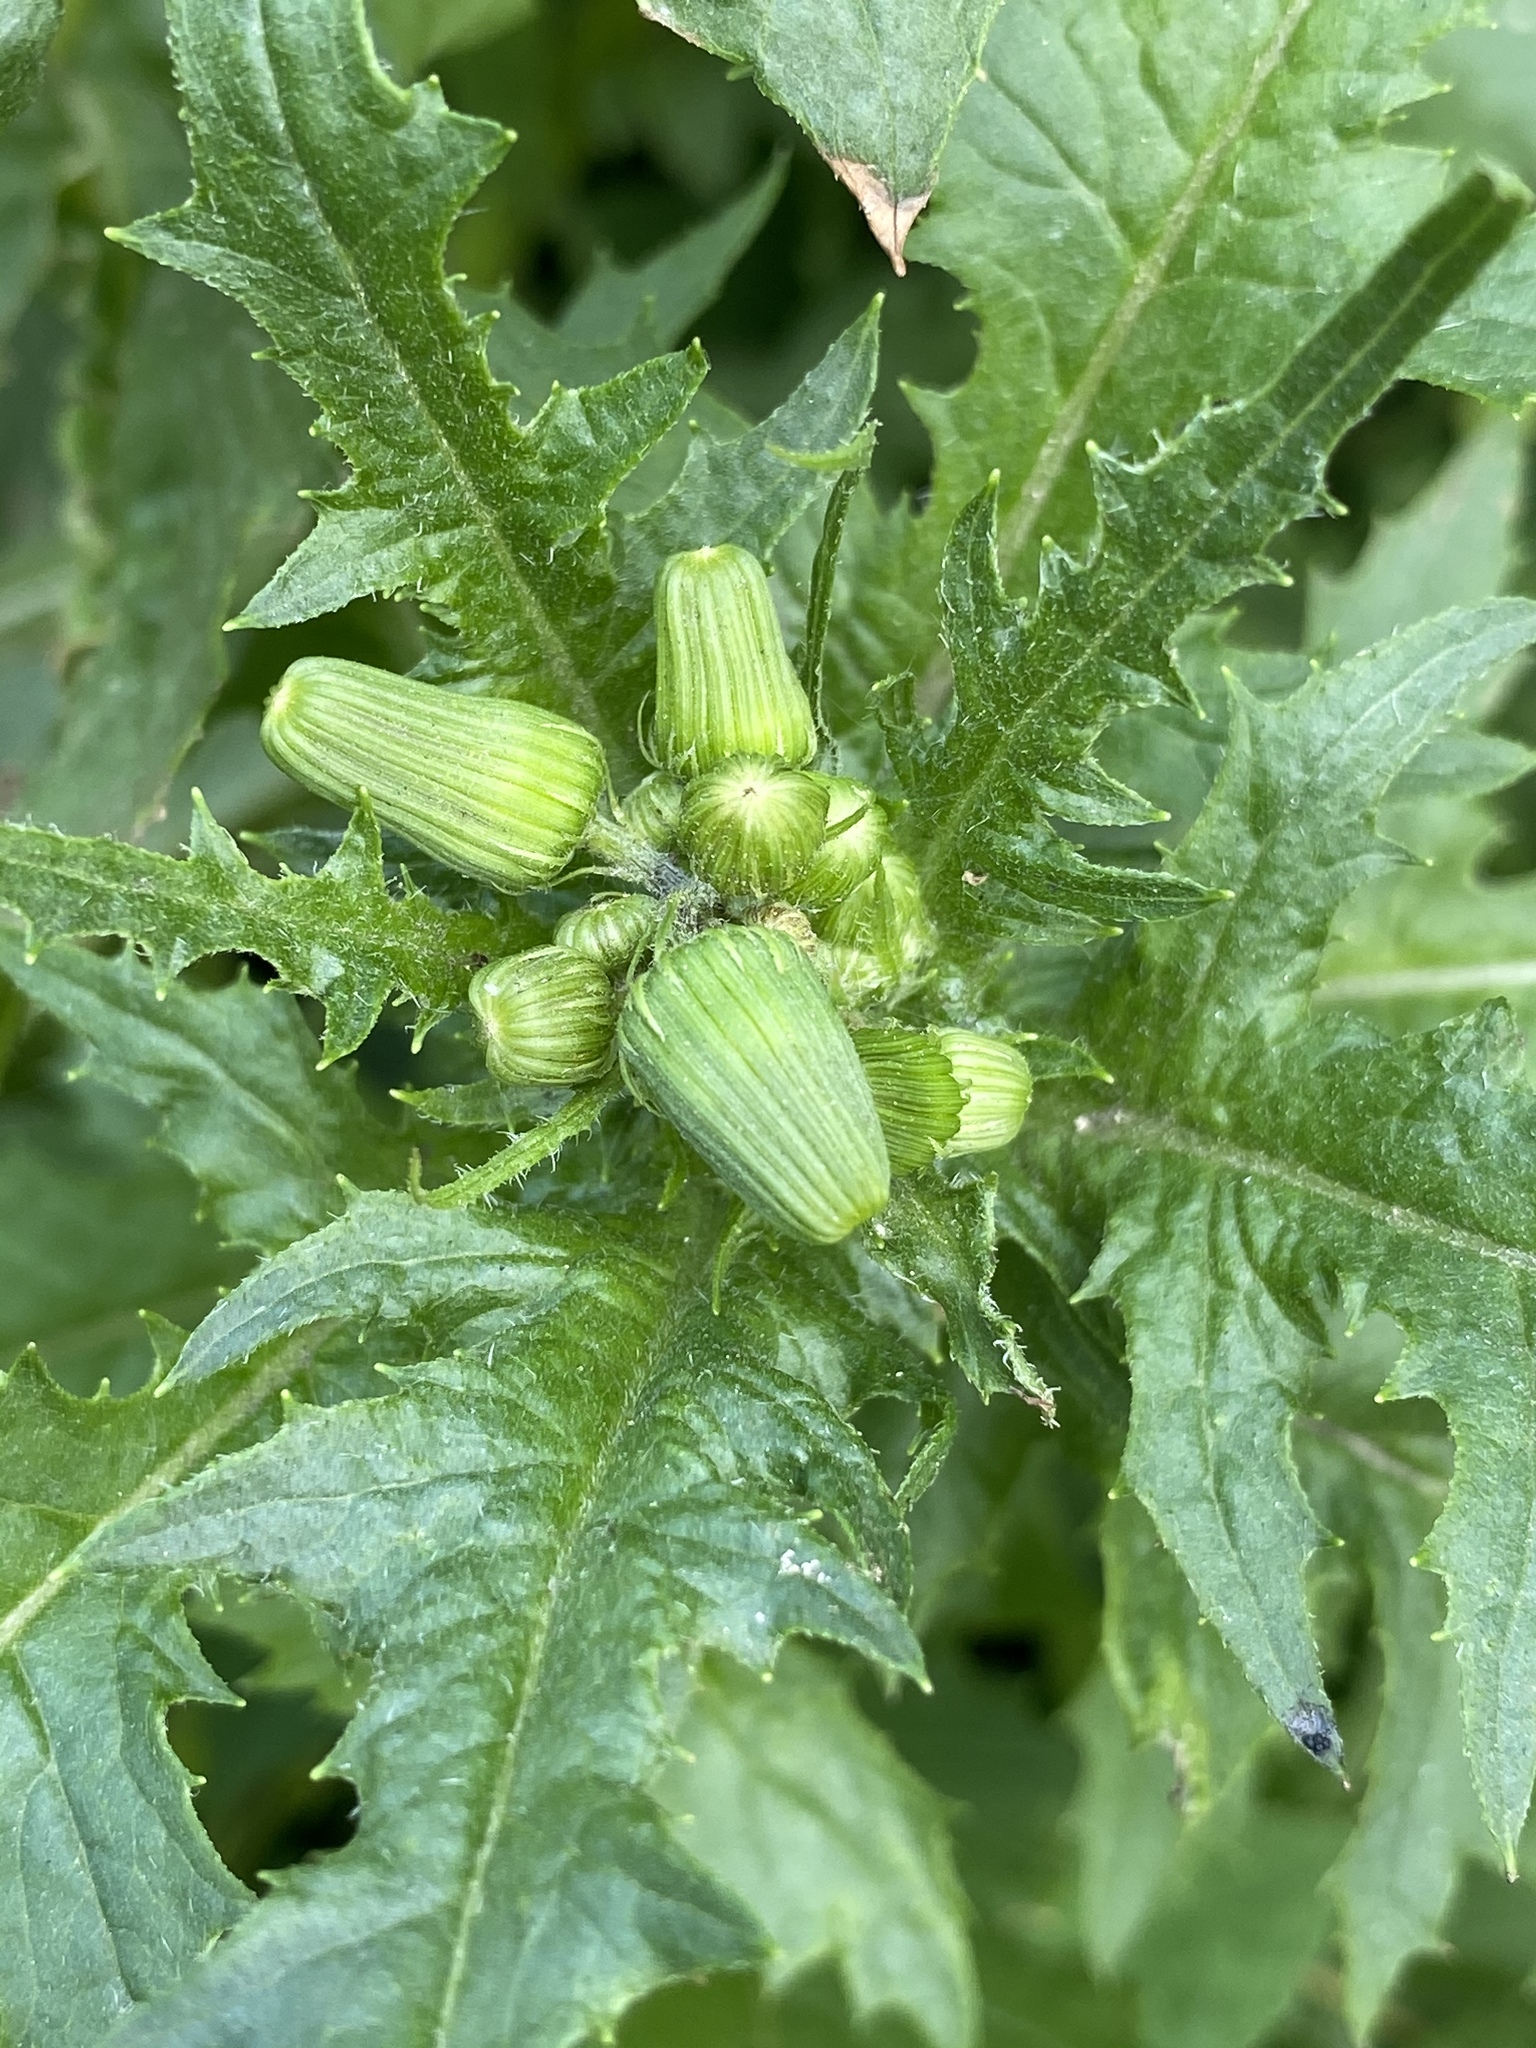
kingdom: Plantae
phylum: Tracheophyta
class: Magnoliopsida
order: Asterales
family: Asteraceae
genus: Erechtites
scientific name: Erechtites hieraciifolius
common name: American burnweed
